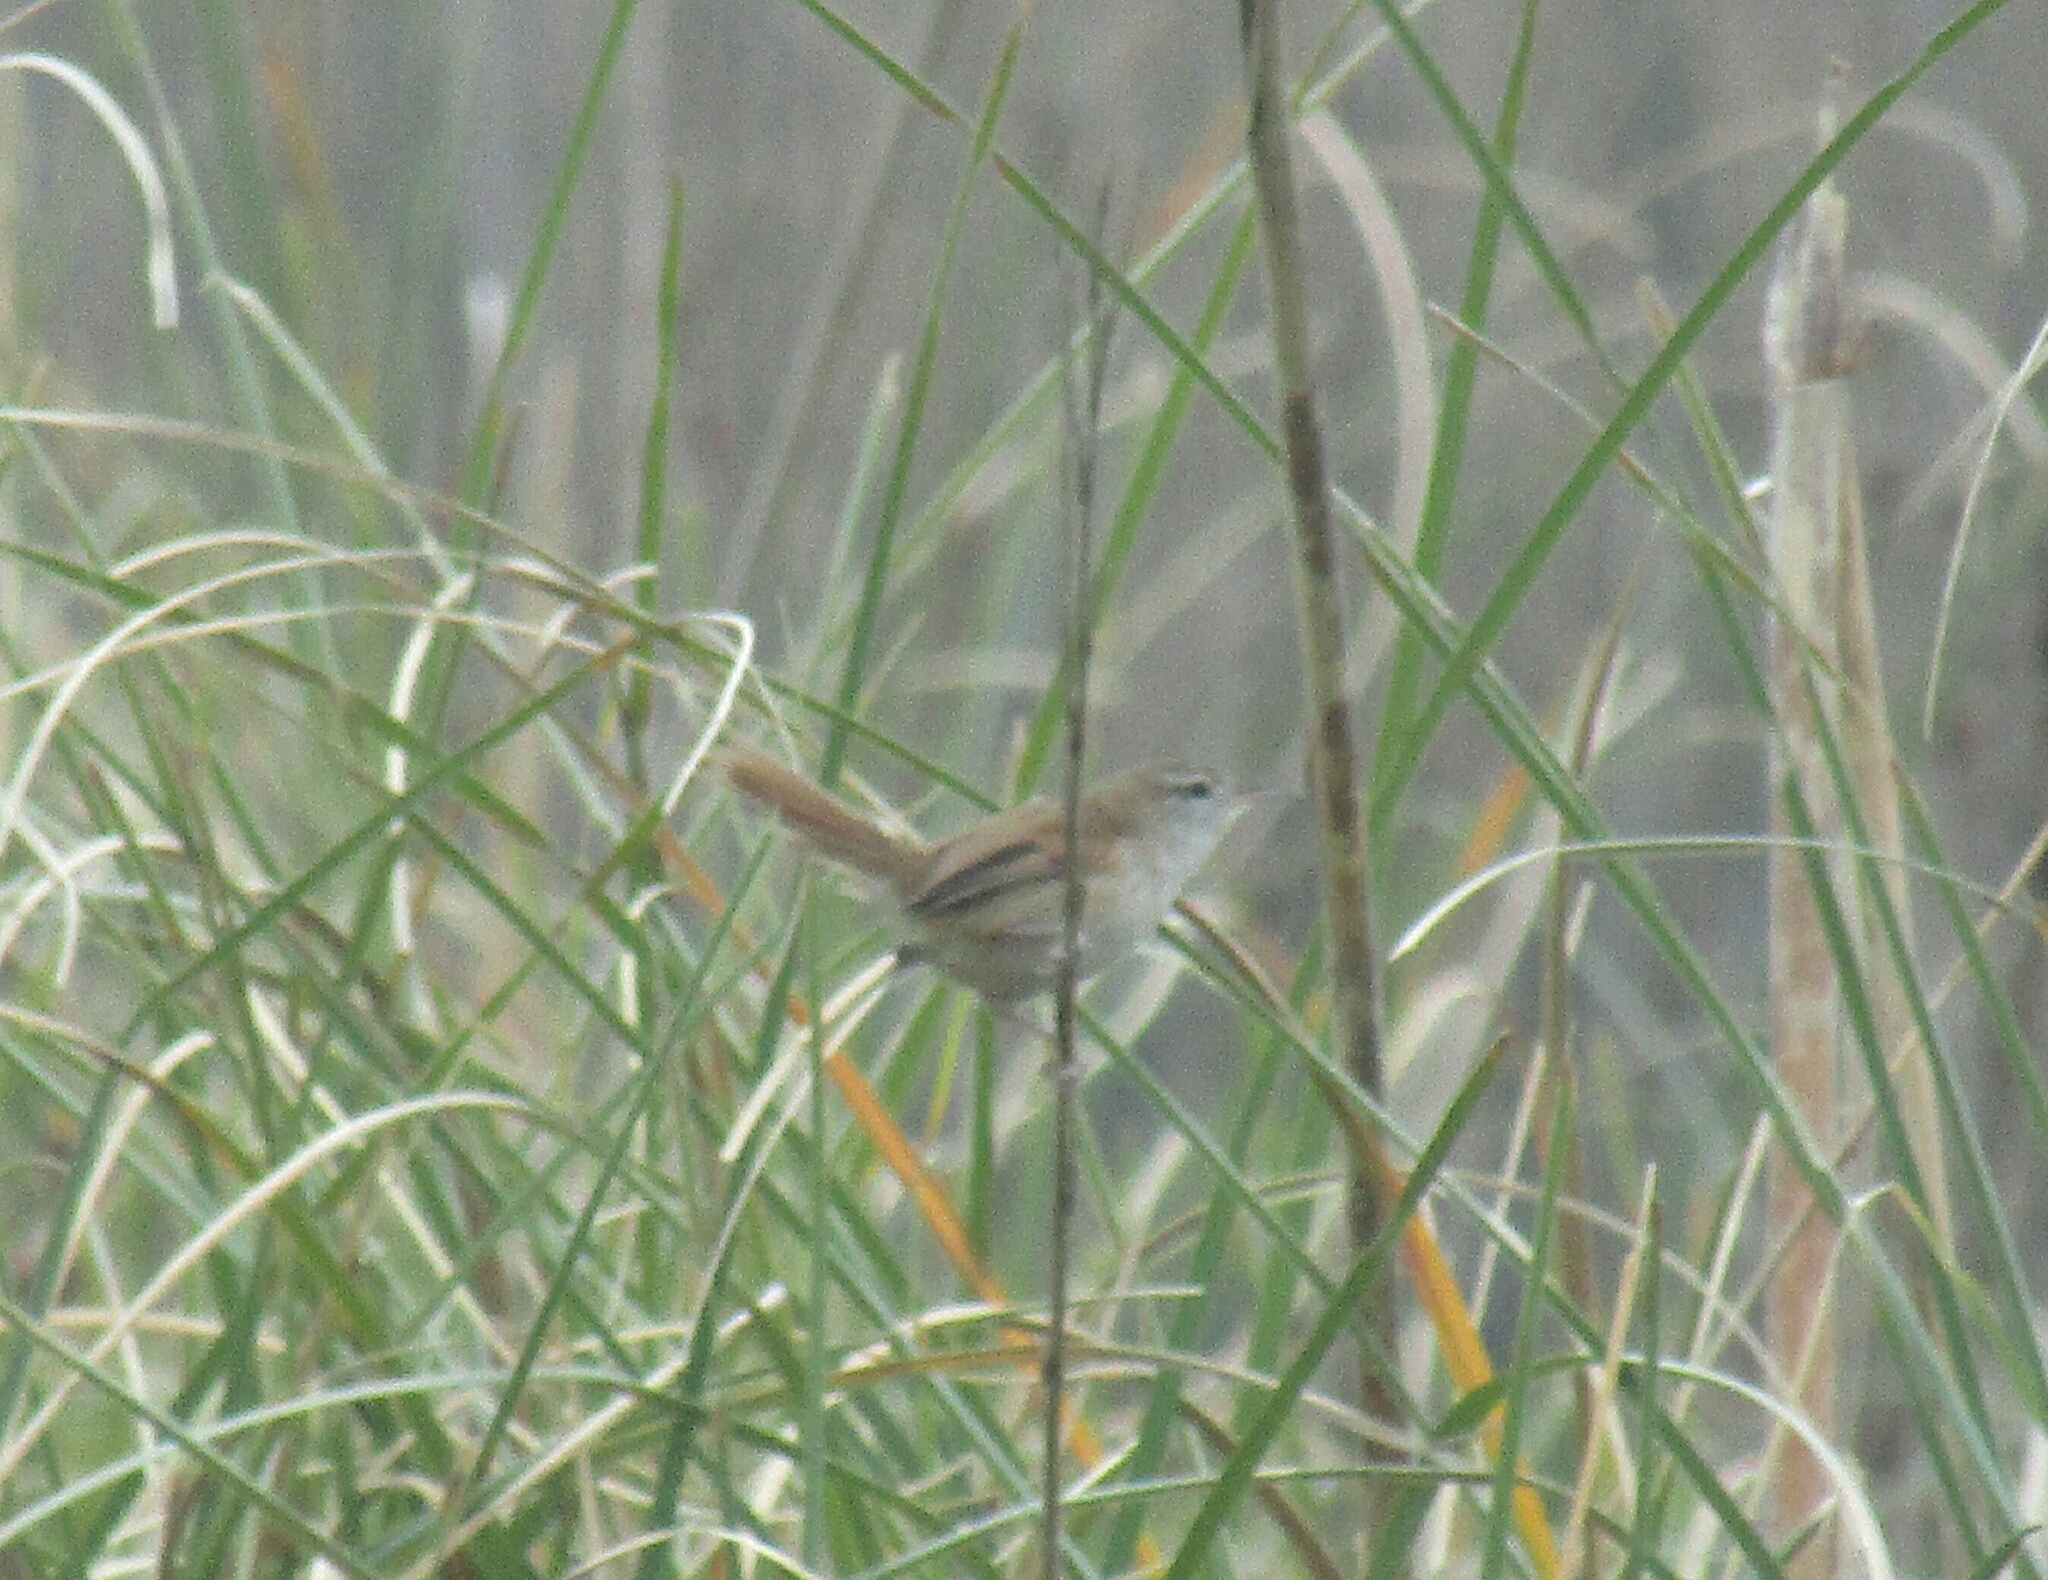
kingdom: Animalia
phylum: Chordata
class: Aves
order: Passeriformes
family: Furnariidae
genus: Cranioleuca
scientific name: Cranioleuca sulphurifera
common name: Sulphur-bearded spinetail
